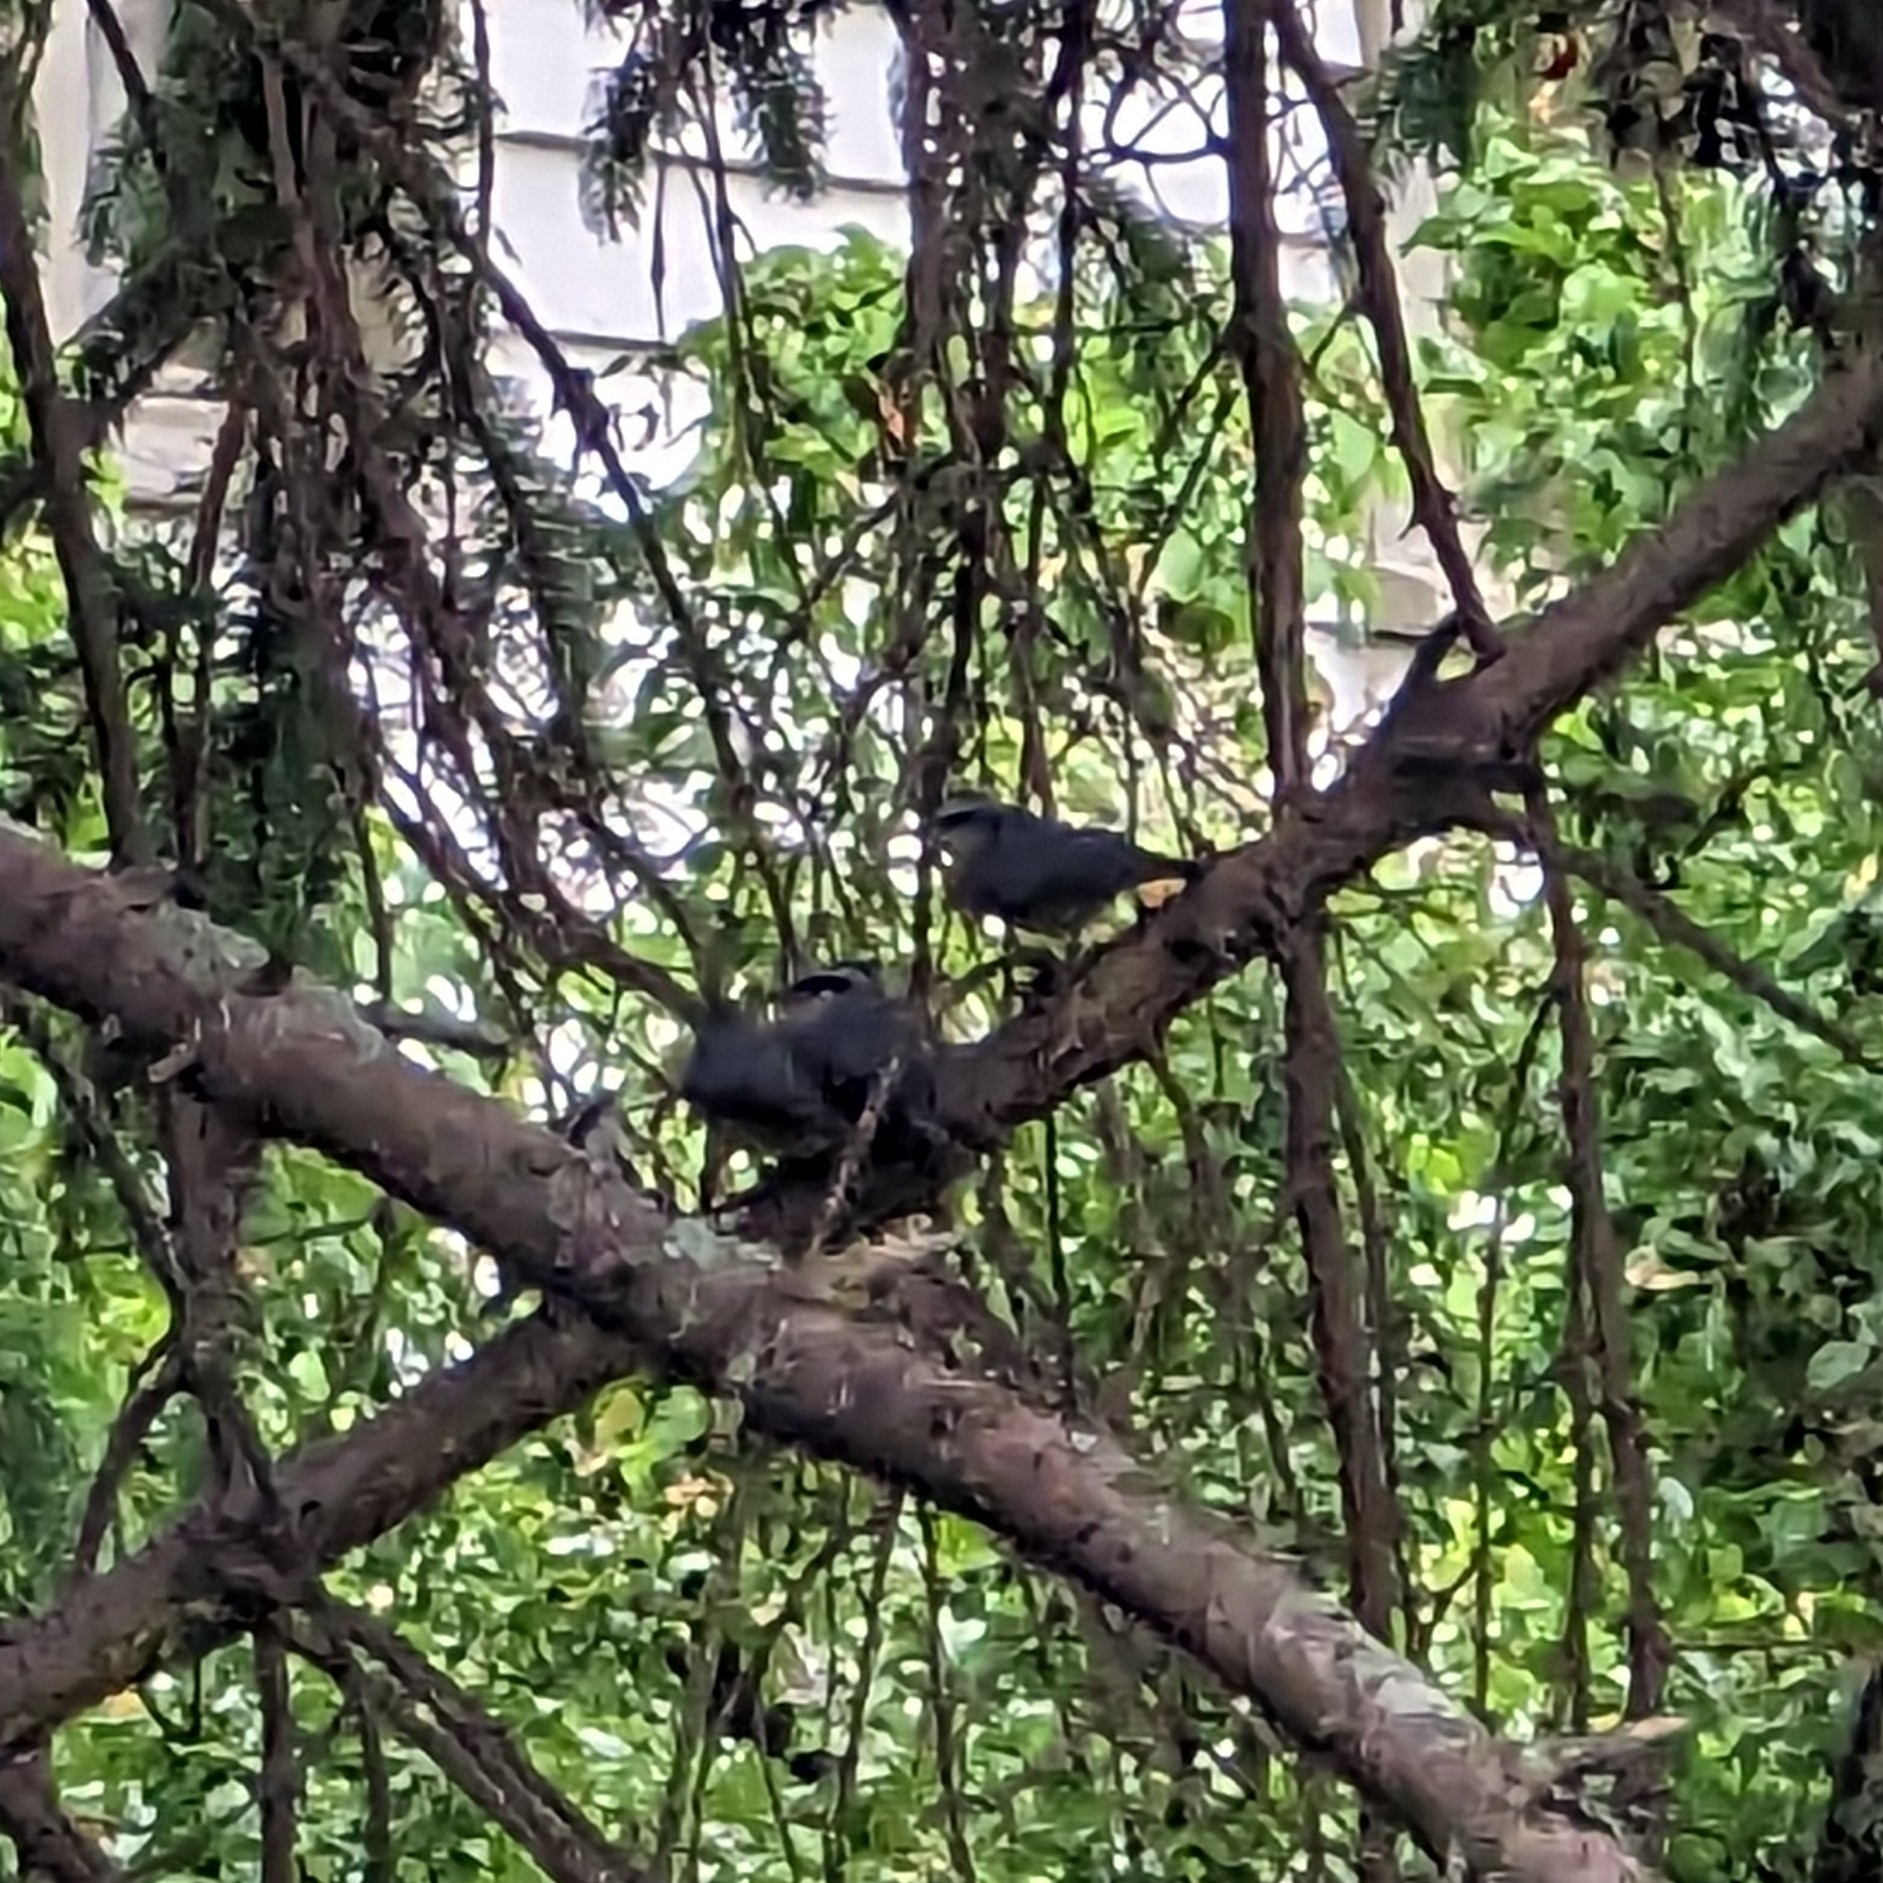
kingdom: Animalia
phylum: Chordata
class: Aves
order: Passeriformes
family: Sittidae
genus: Sitta
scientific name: Sitta canadensis
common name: Red-breasted nuthatch
